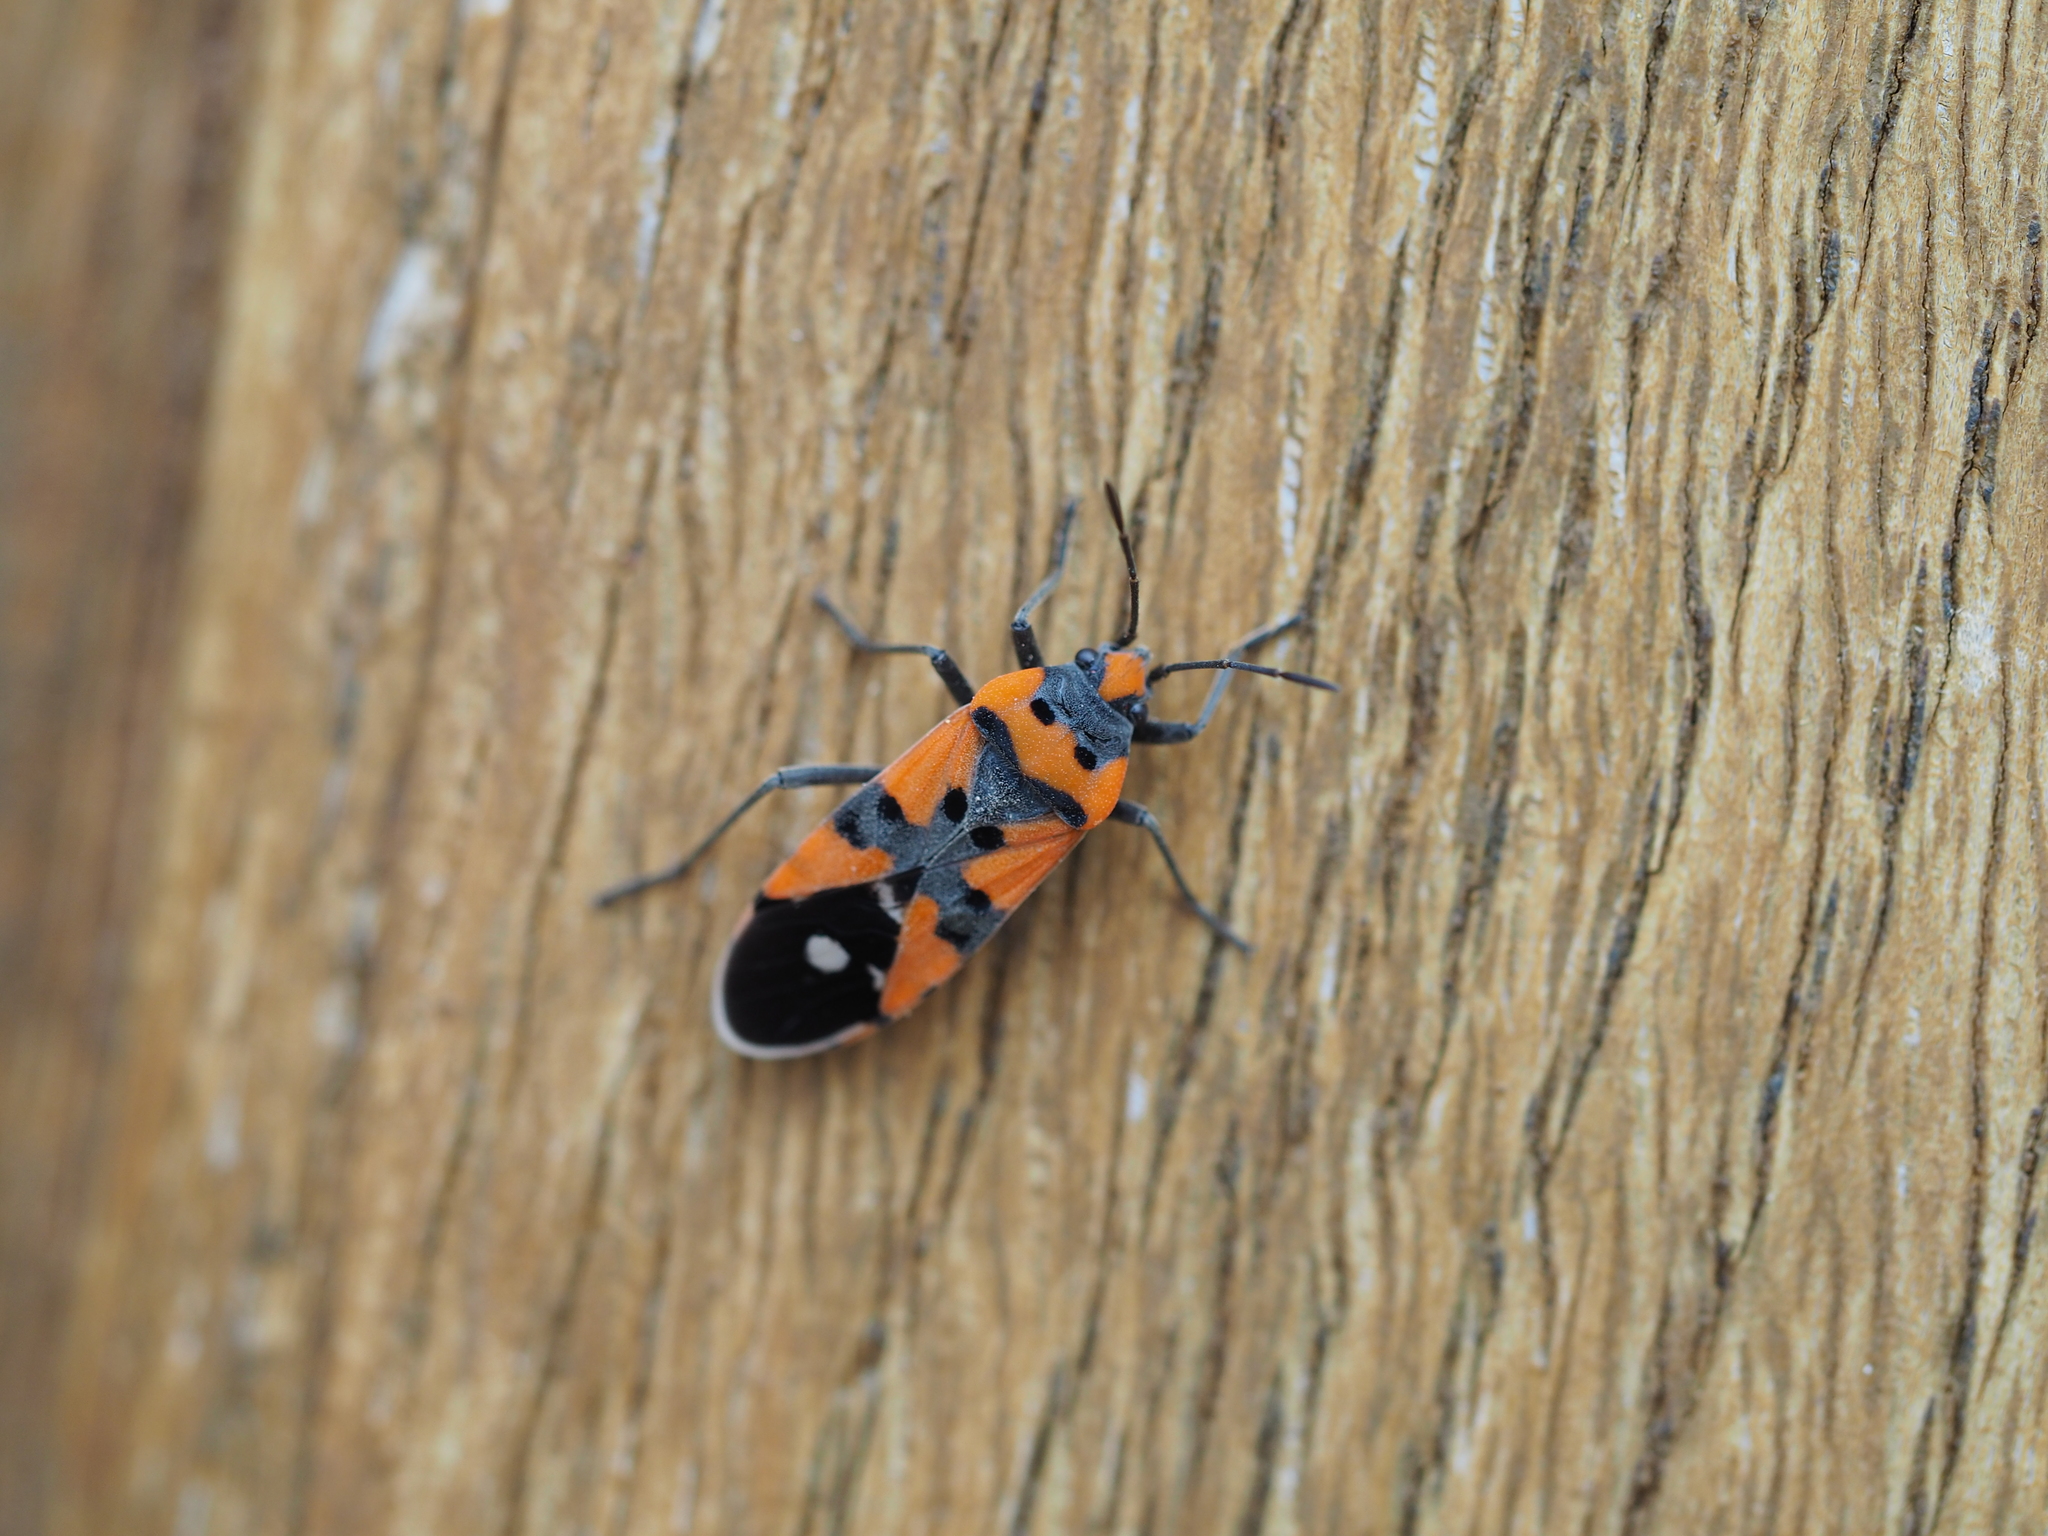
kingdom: Animalia
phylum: Arthropoda
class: Insecta
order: Hemiptera
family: Lygaeidae
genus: Lygaeus
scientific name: Lygaeus simulans
